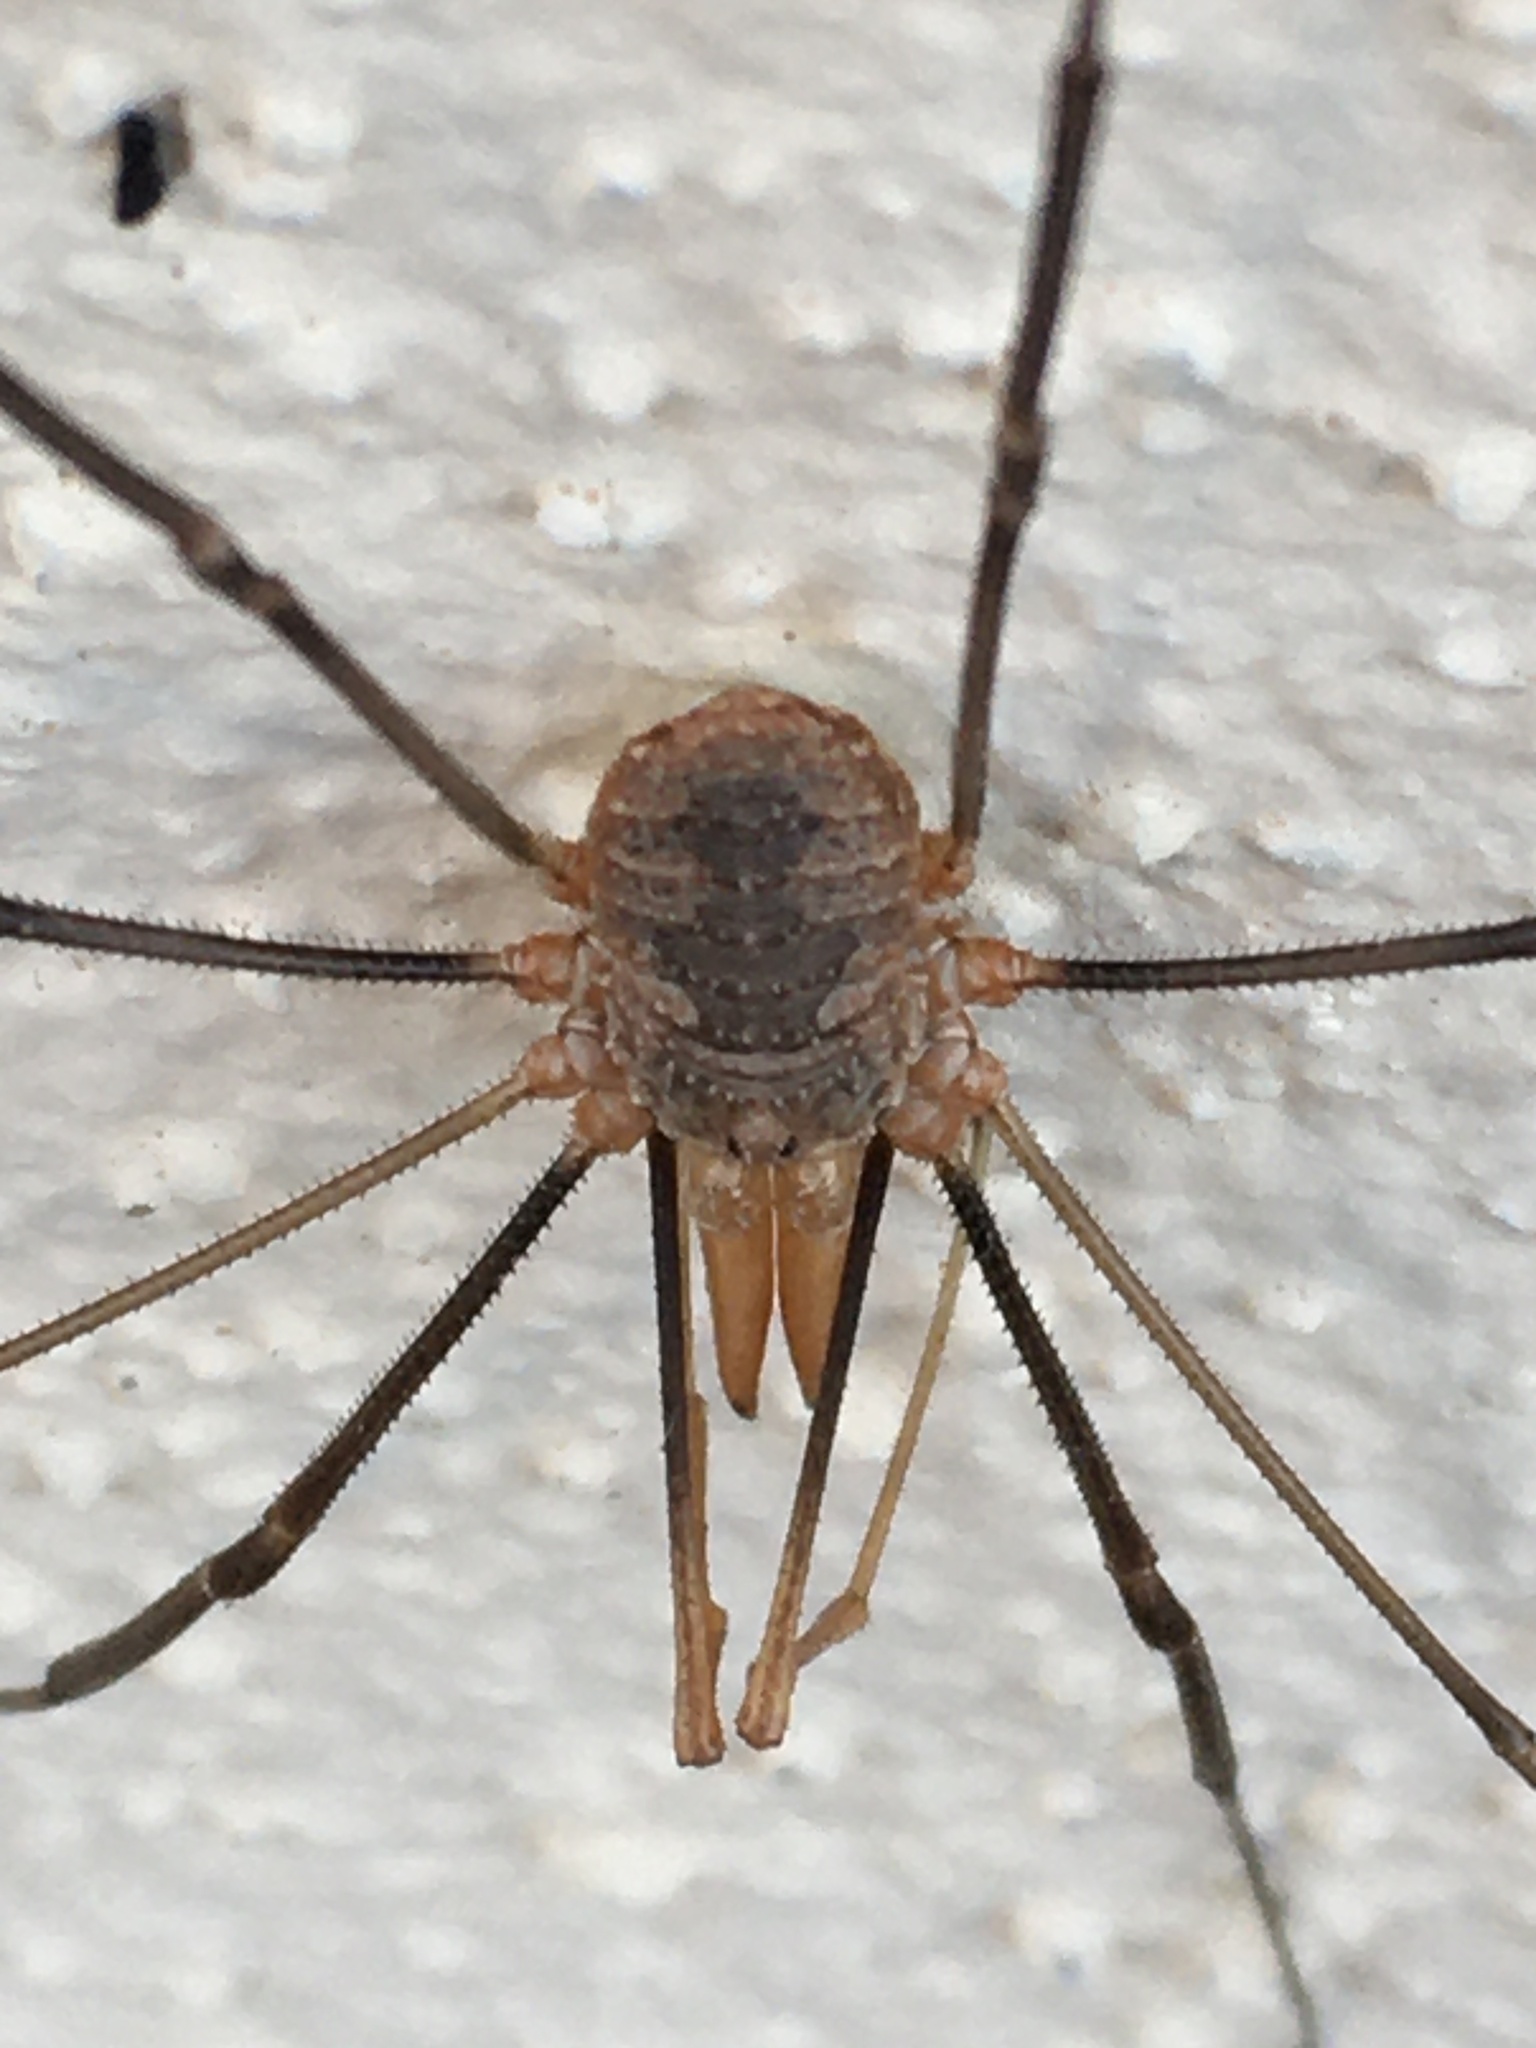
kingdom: Animalia
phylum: Arthropoda
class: Arachnida
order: Opiliones
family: Phalangiidae
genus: Phalangium
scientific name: Phalangium opilio
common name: Daddy longleg
